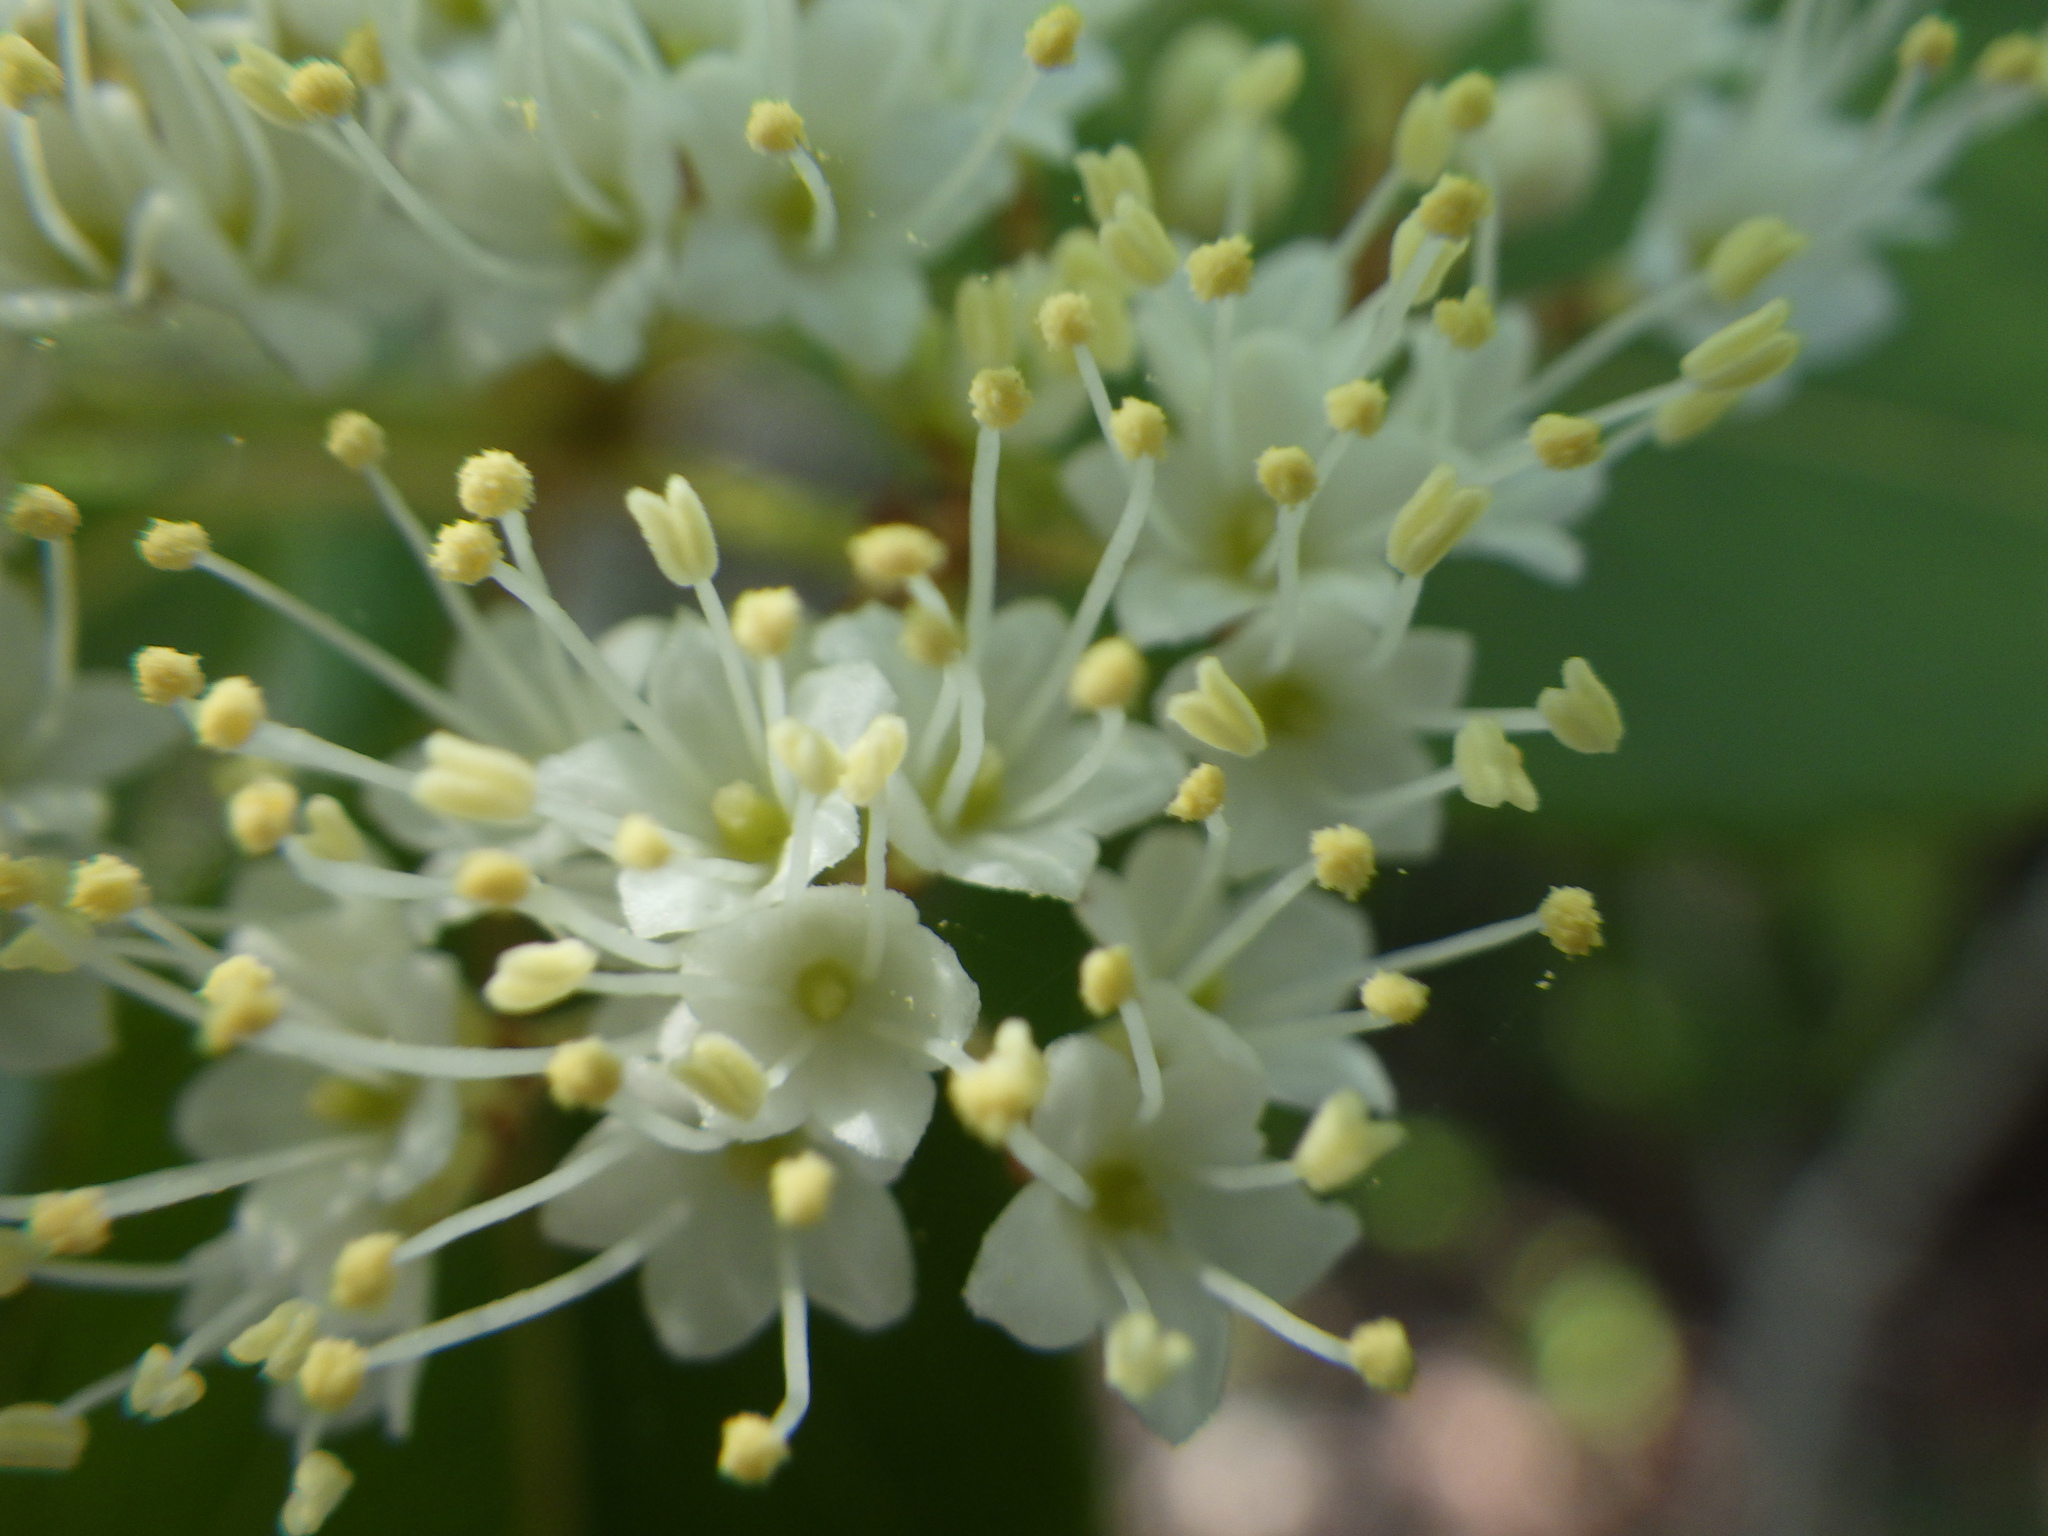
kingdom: Plantae
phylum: Tracheophyta
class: Magnoliopsida
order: Dipsacales
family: Viburnaceae
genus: Viburnum
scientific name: Viburnum cassinoides
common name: Swamp haw
